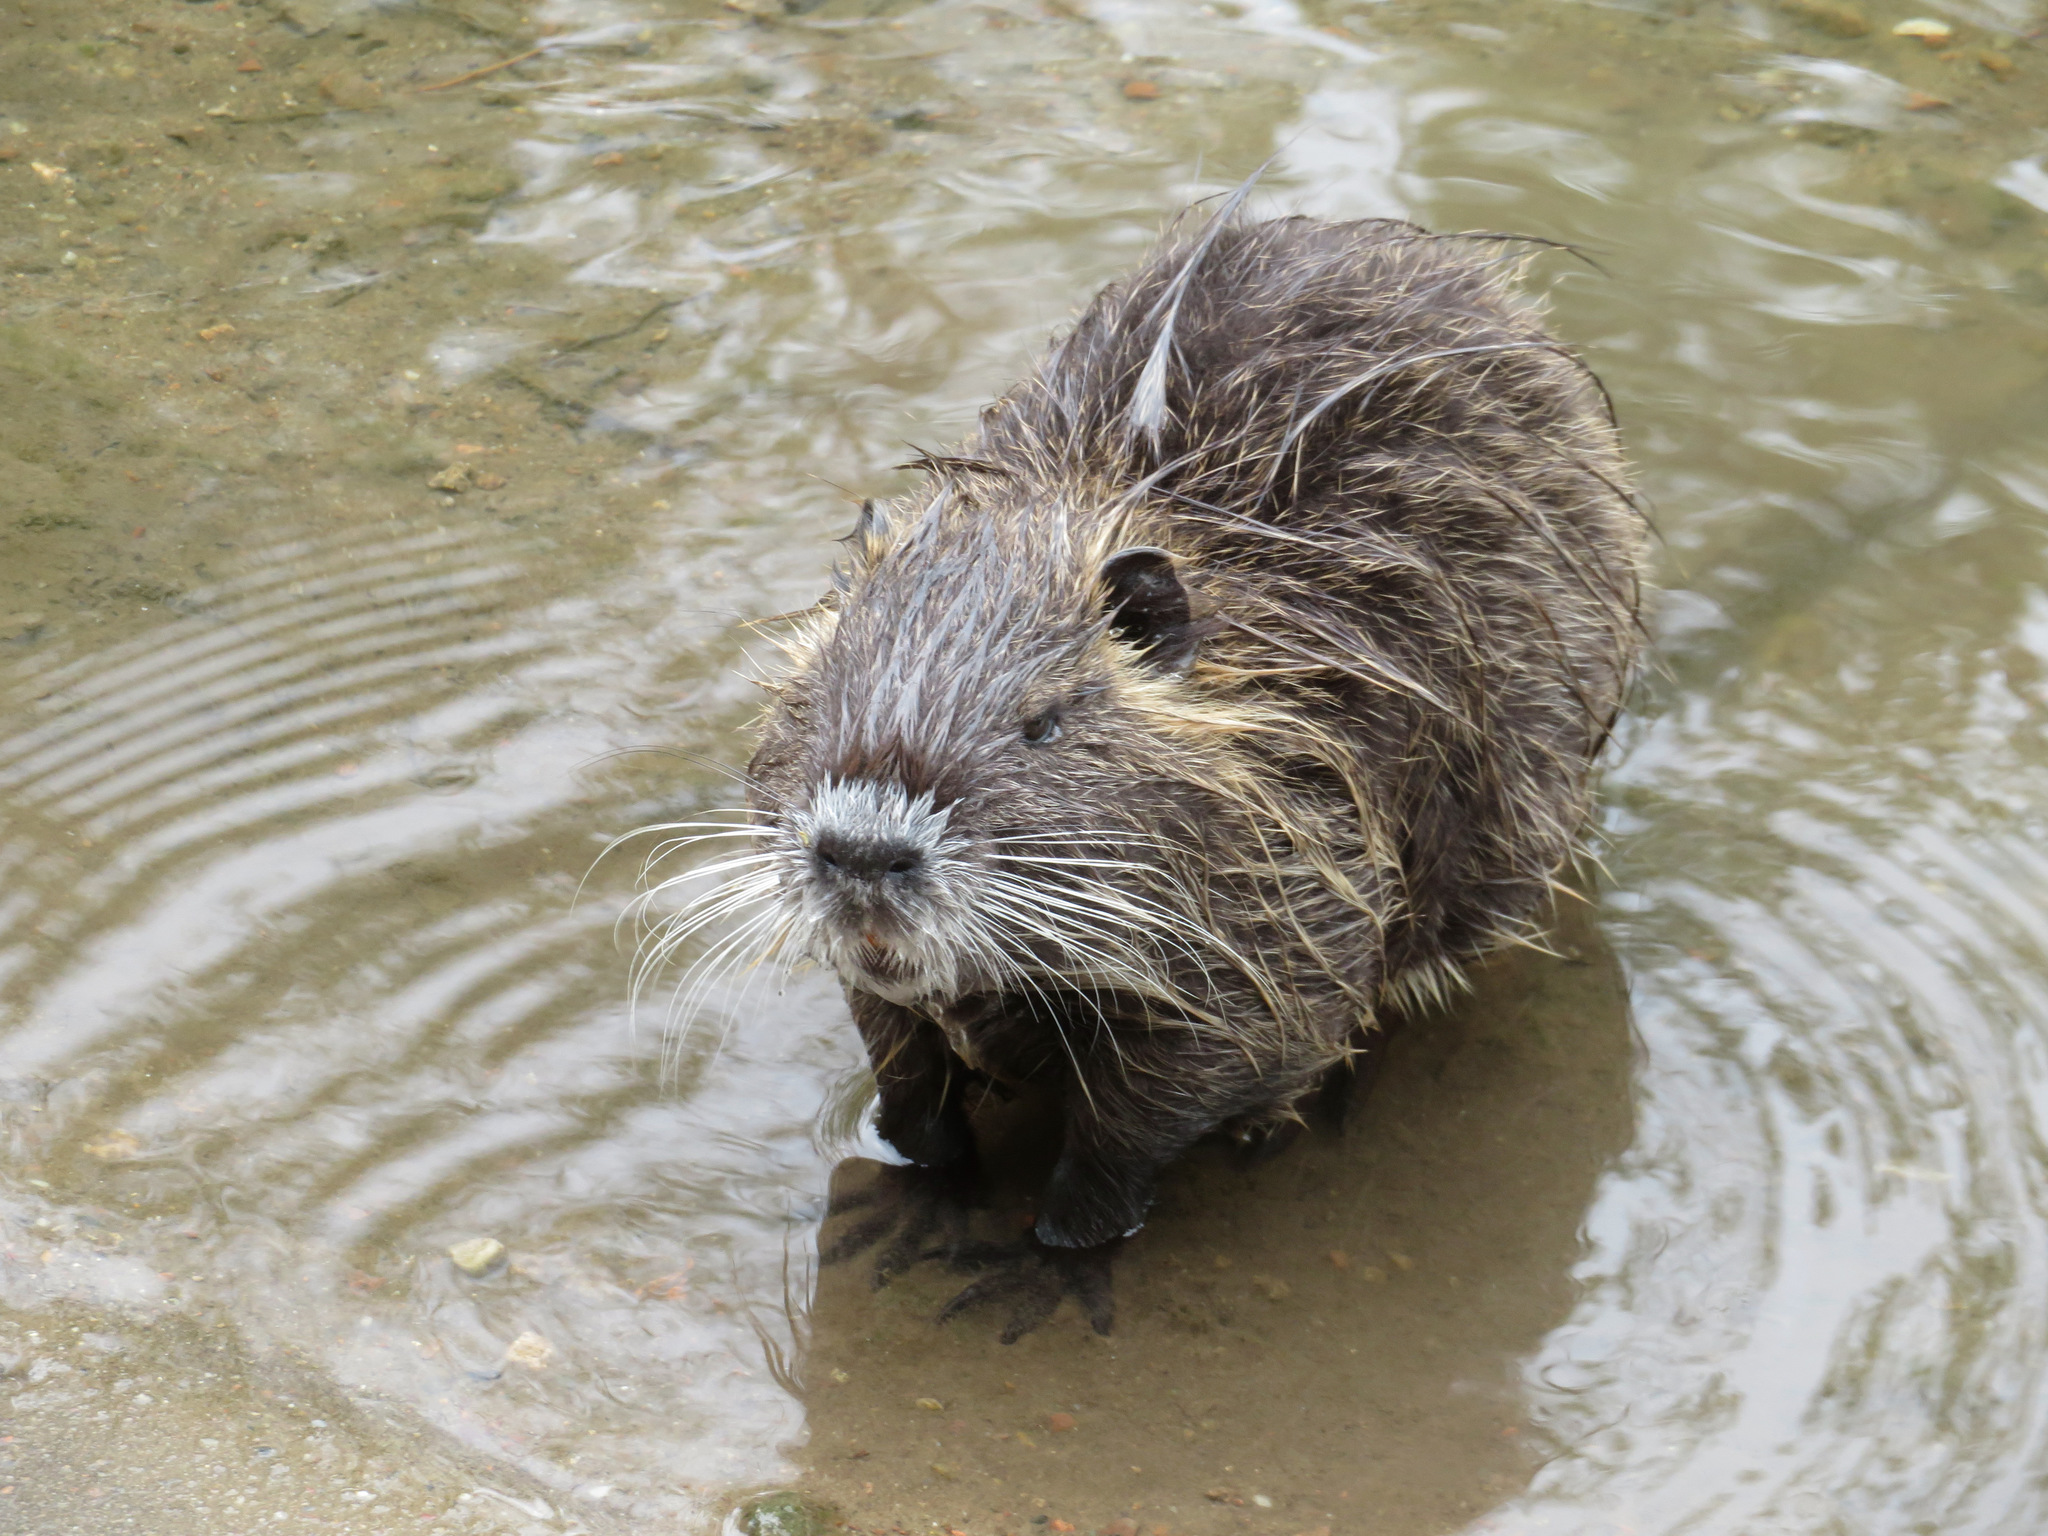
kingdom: Animalia
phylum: Chordata
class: Mammalia
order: Rodentia
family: Myocastoridae
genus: Myocastor
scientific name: Myocastor coypus
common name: Coypu
